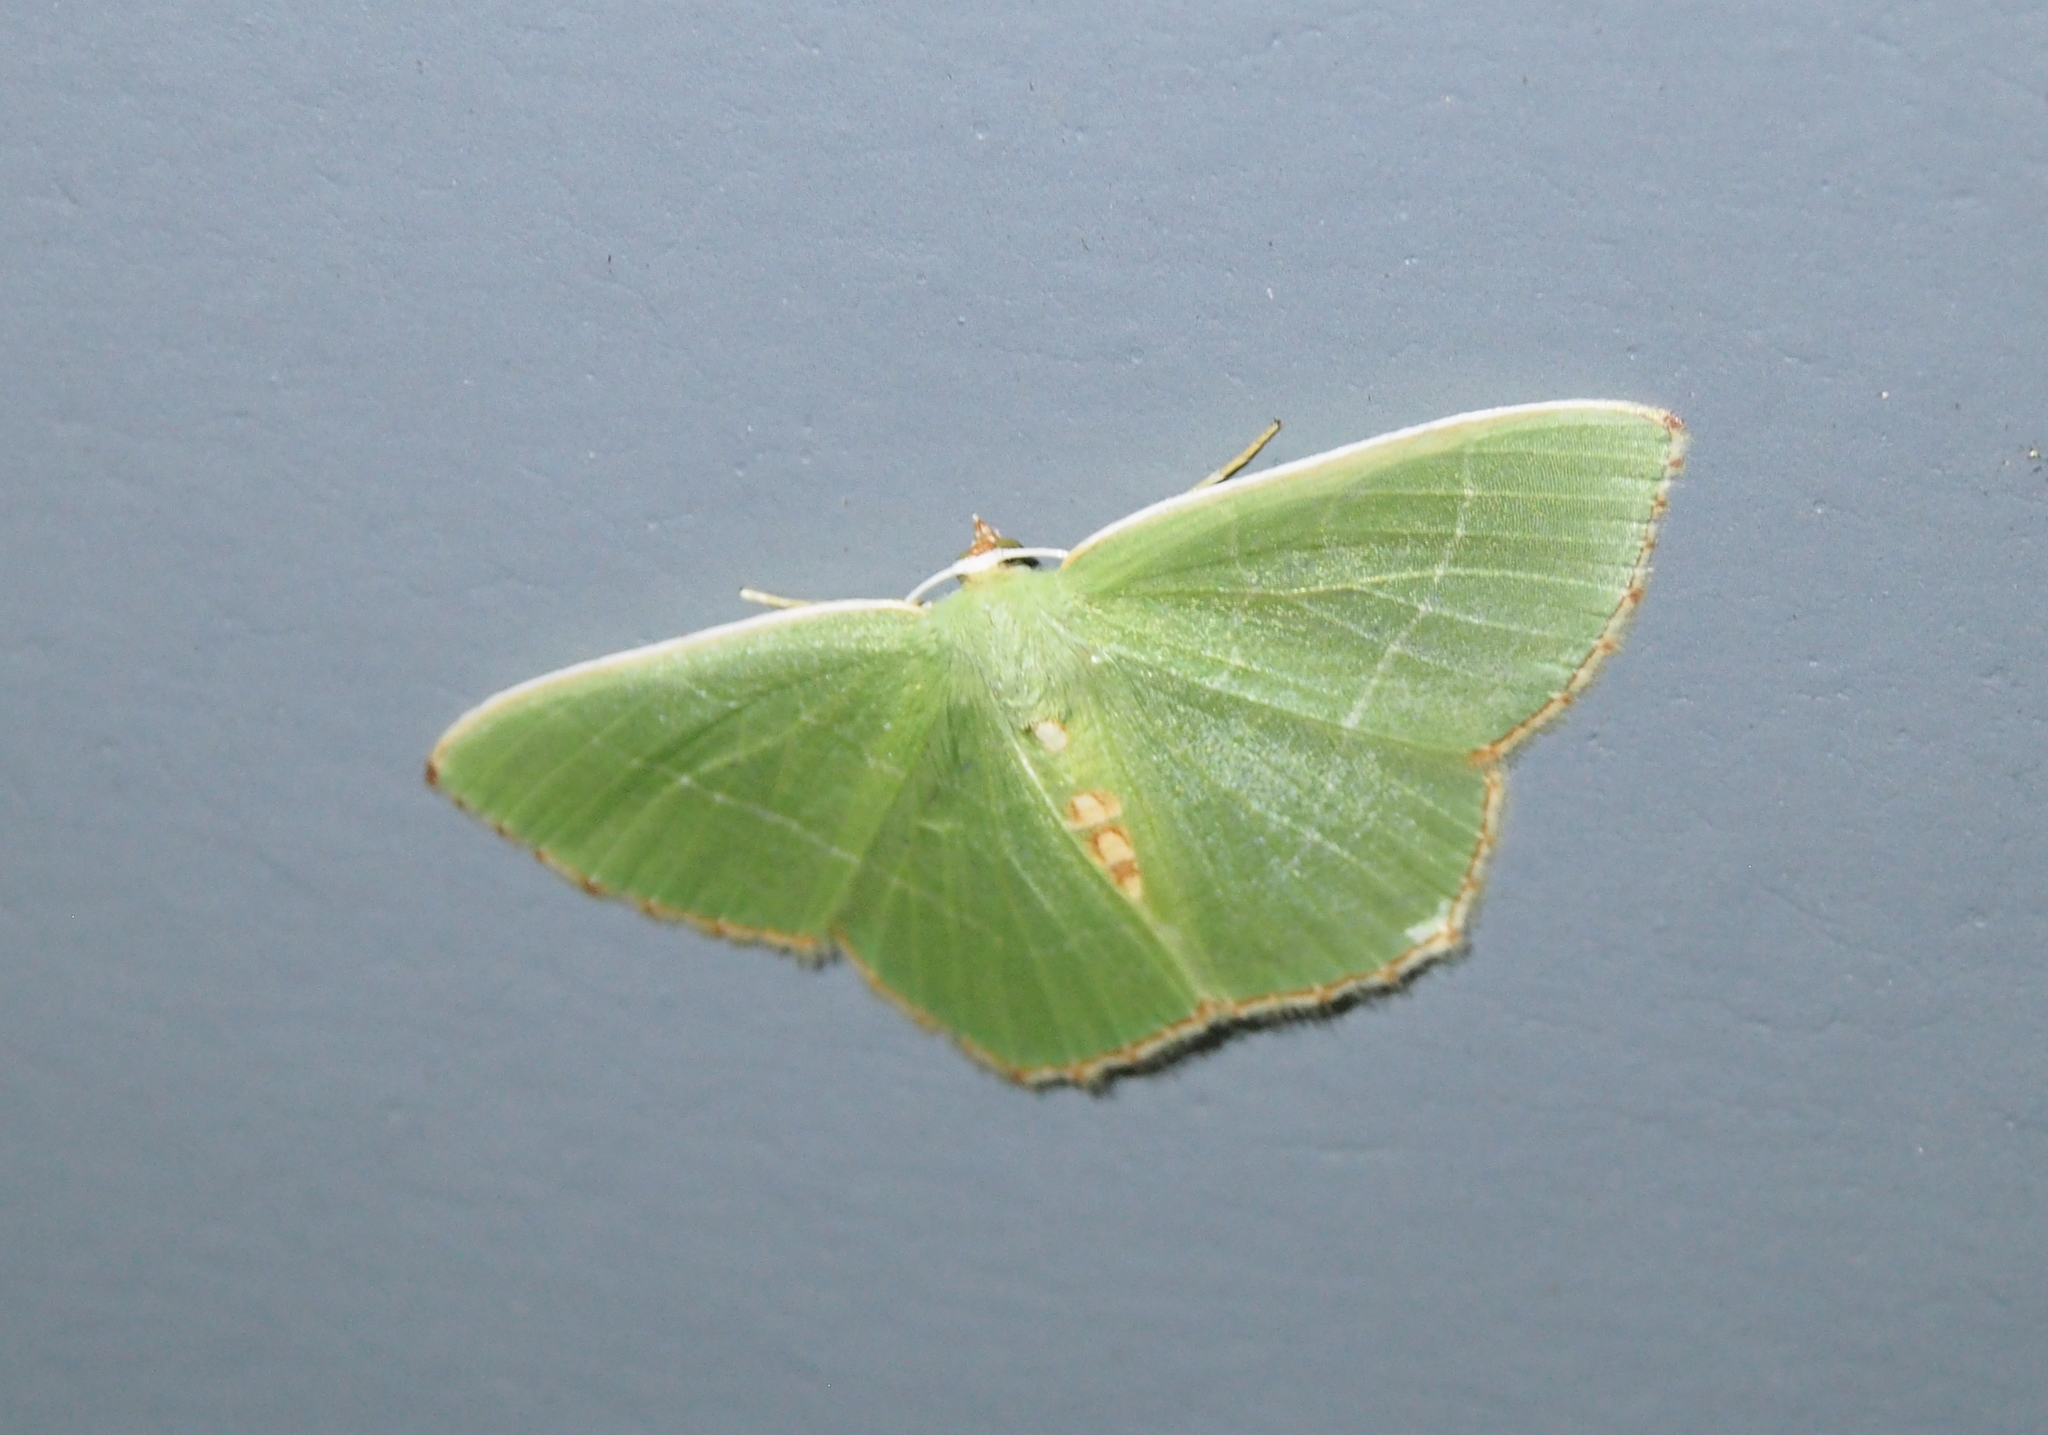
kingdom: Animalia
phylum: Arthropoda
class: Insecta
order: Lepidoptera
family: Geometridae
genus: Nemoria
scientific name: Nemoria bistriaria
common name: Red-fringed emerald
